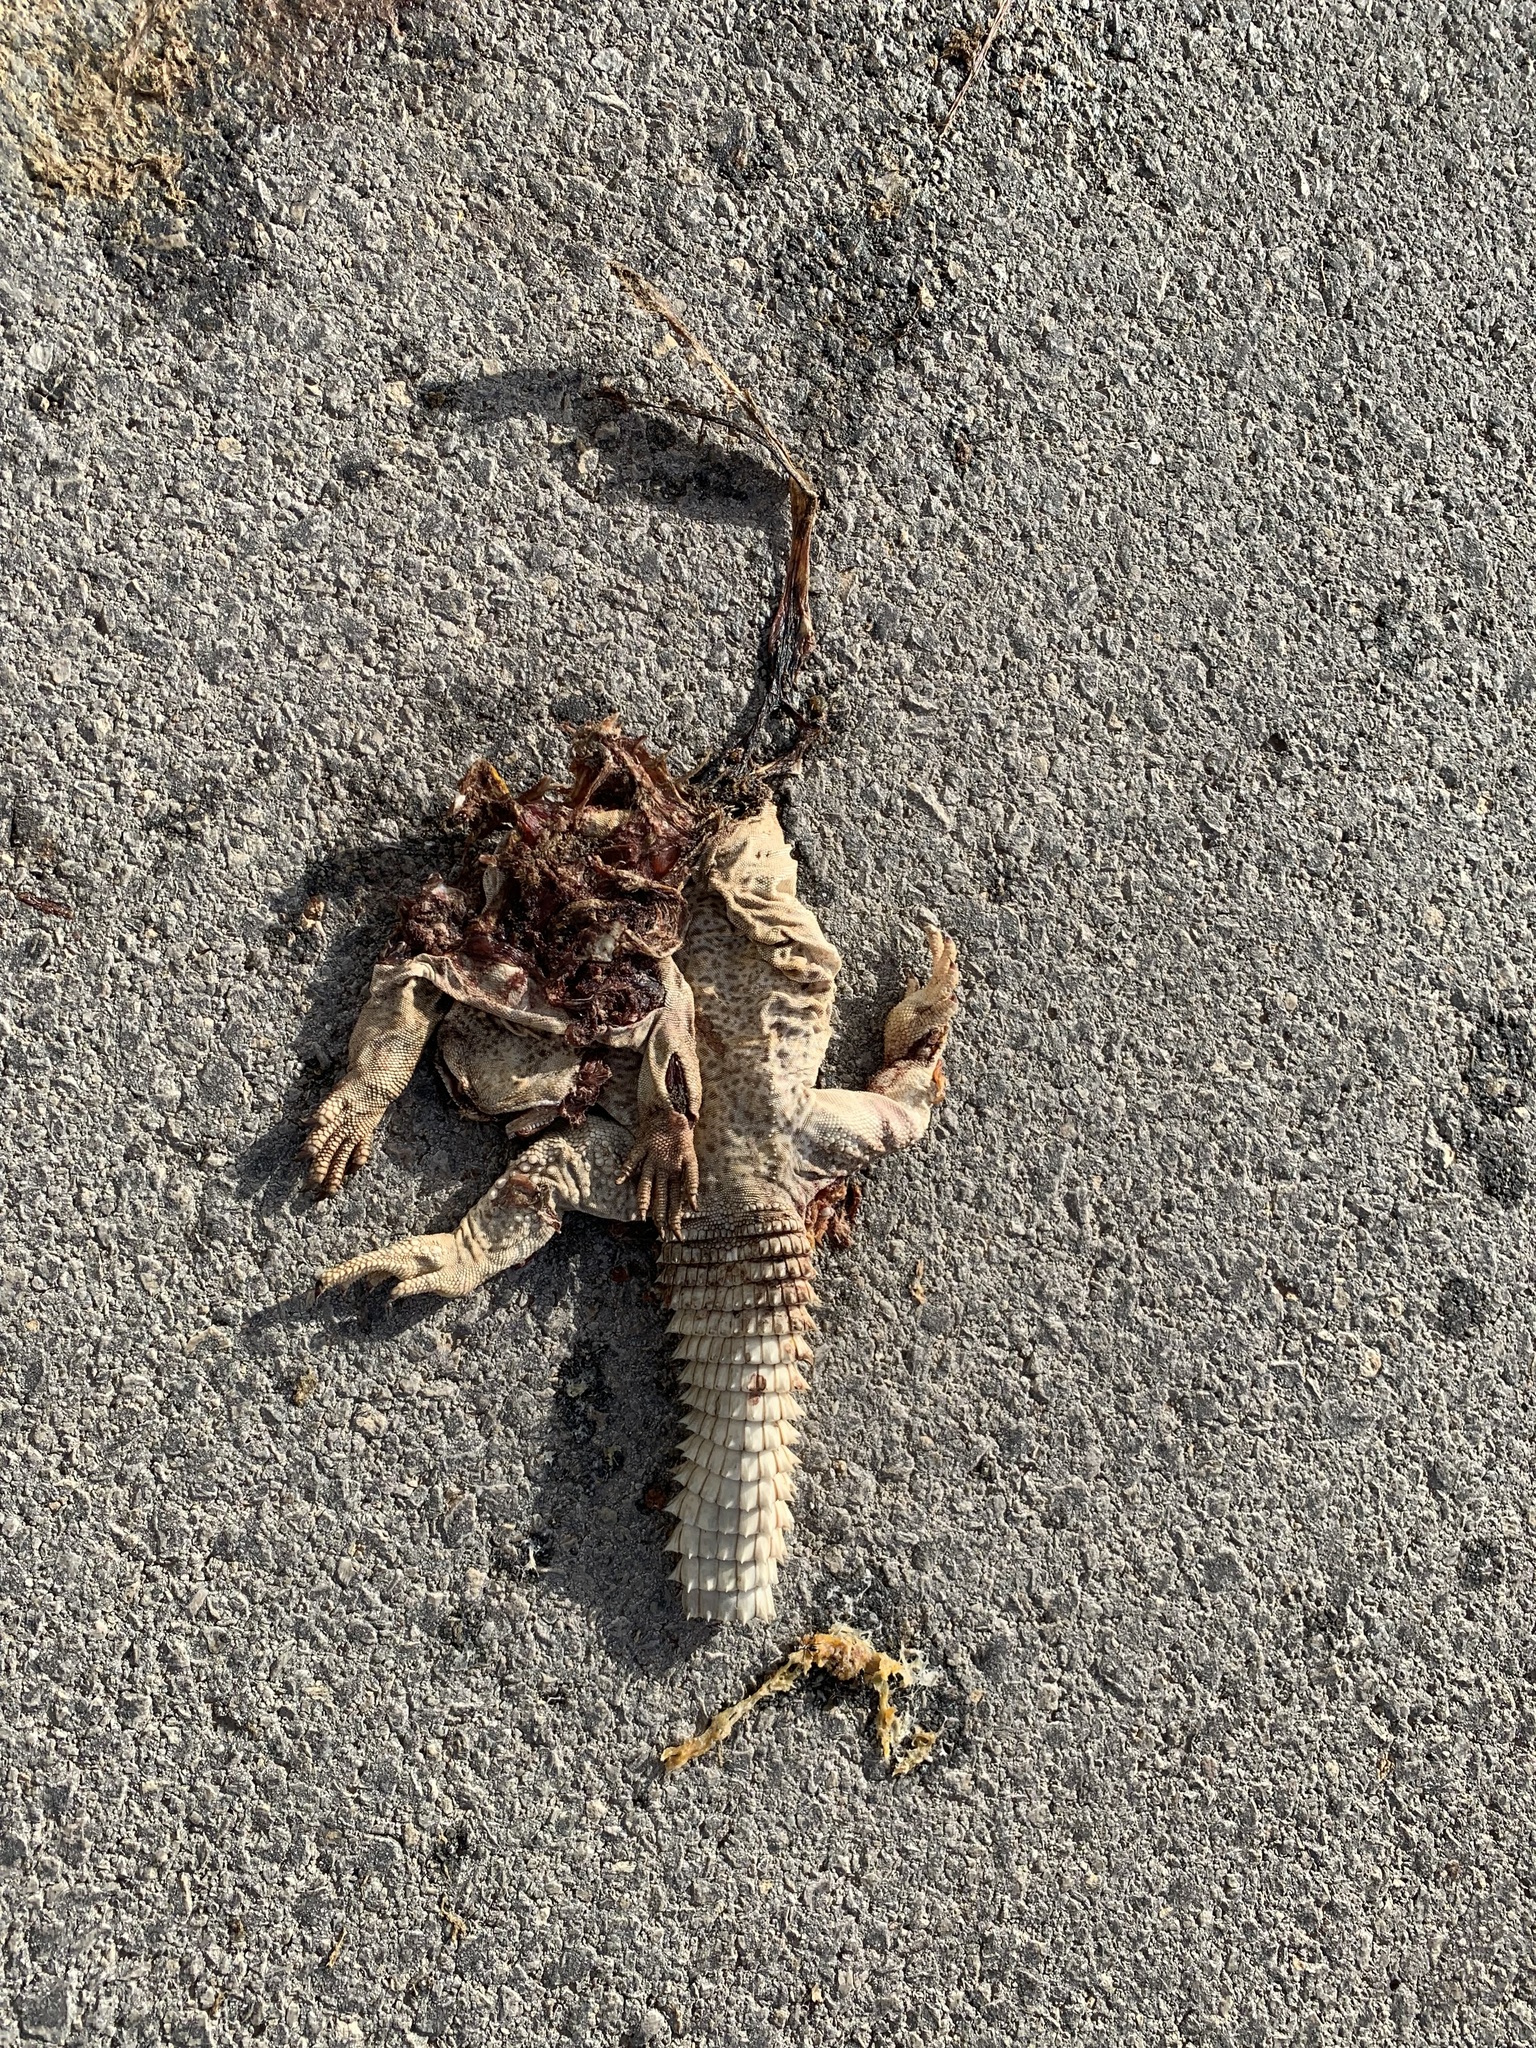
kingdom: Animalia
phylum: Chordata
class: Squamata
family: Agamidae
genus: Uromastyx
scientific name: Uromastyx aegyptia
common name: Egyptian mastigure
